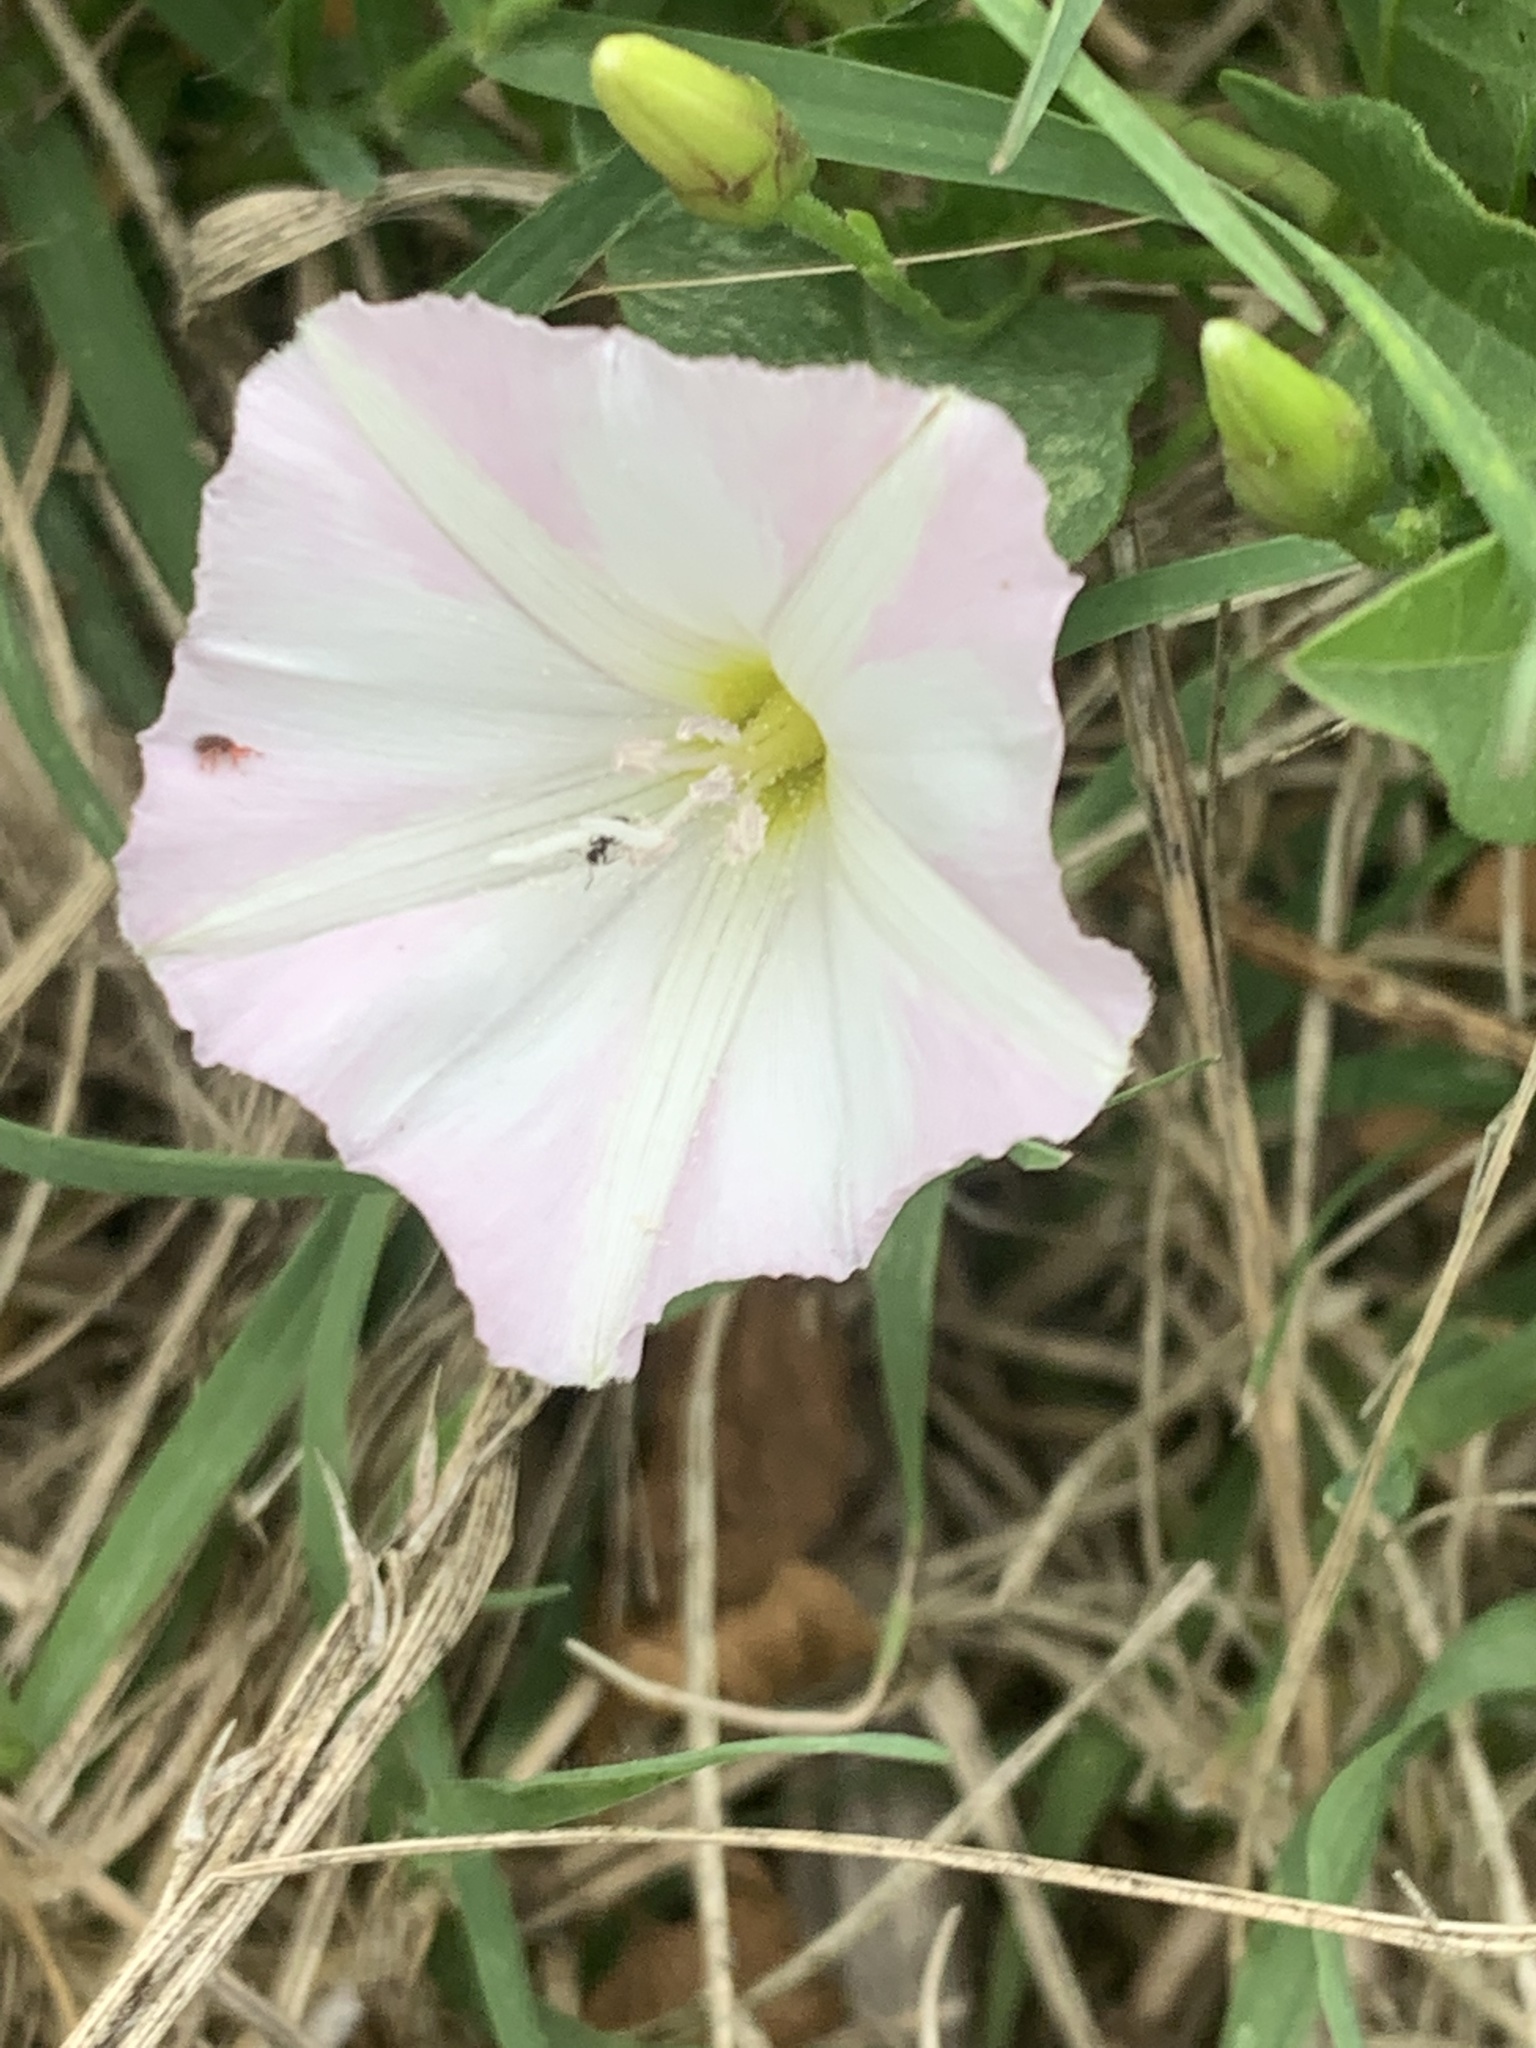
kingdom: Plantae
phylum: Tracheophyta
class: Magnoliopsida
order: Solanales
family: Convolvulaceae
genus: Convolvulus
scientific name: Convolvulus arvensis
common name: Field bindweed
